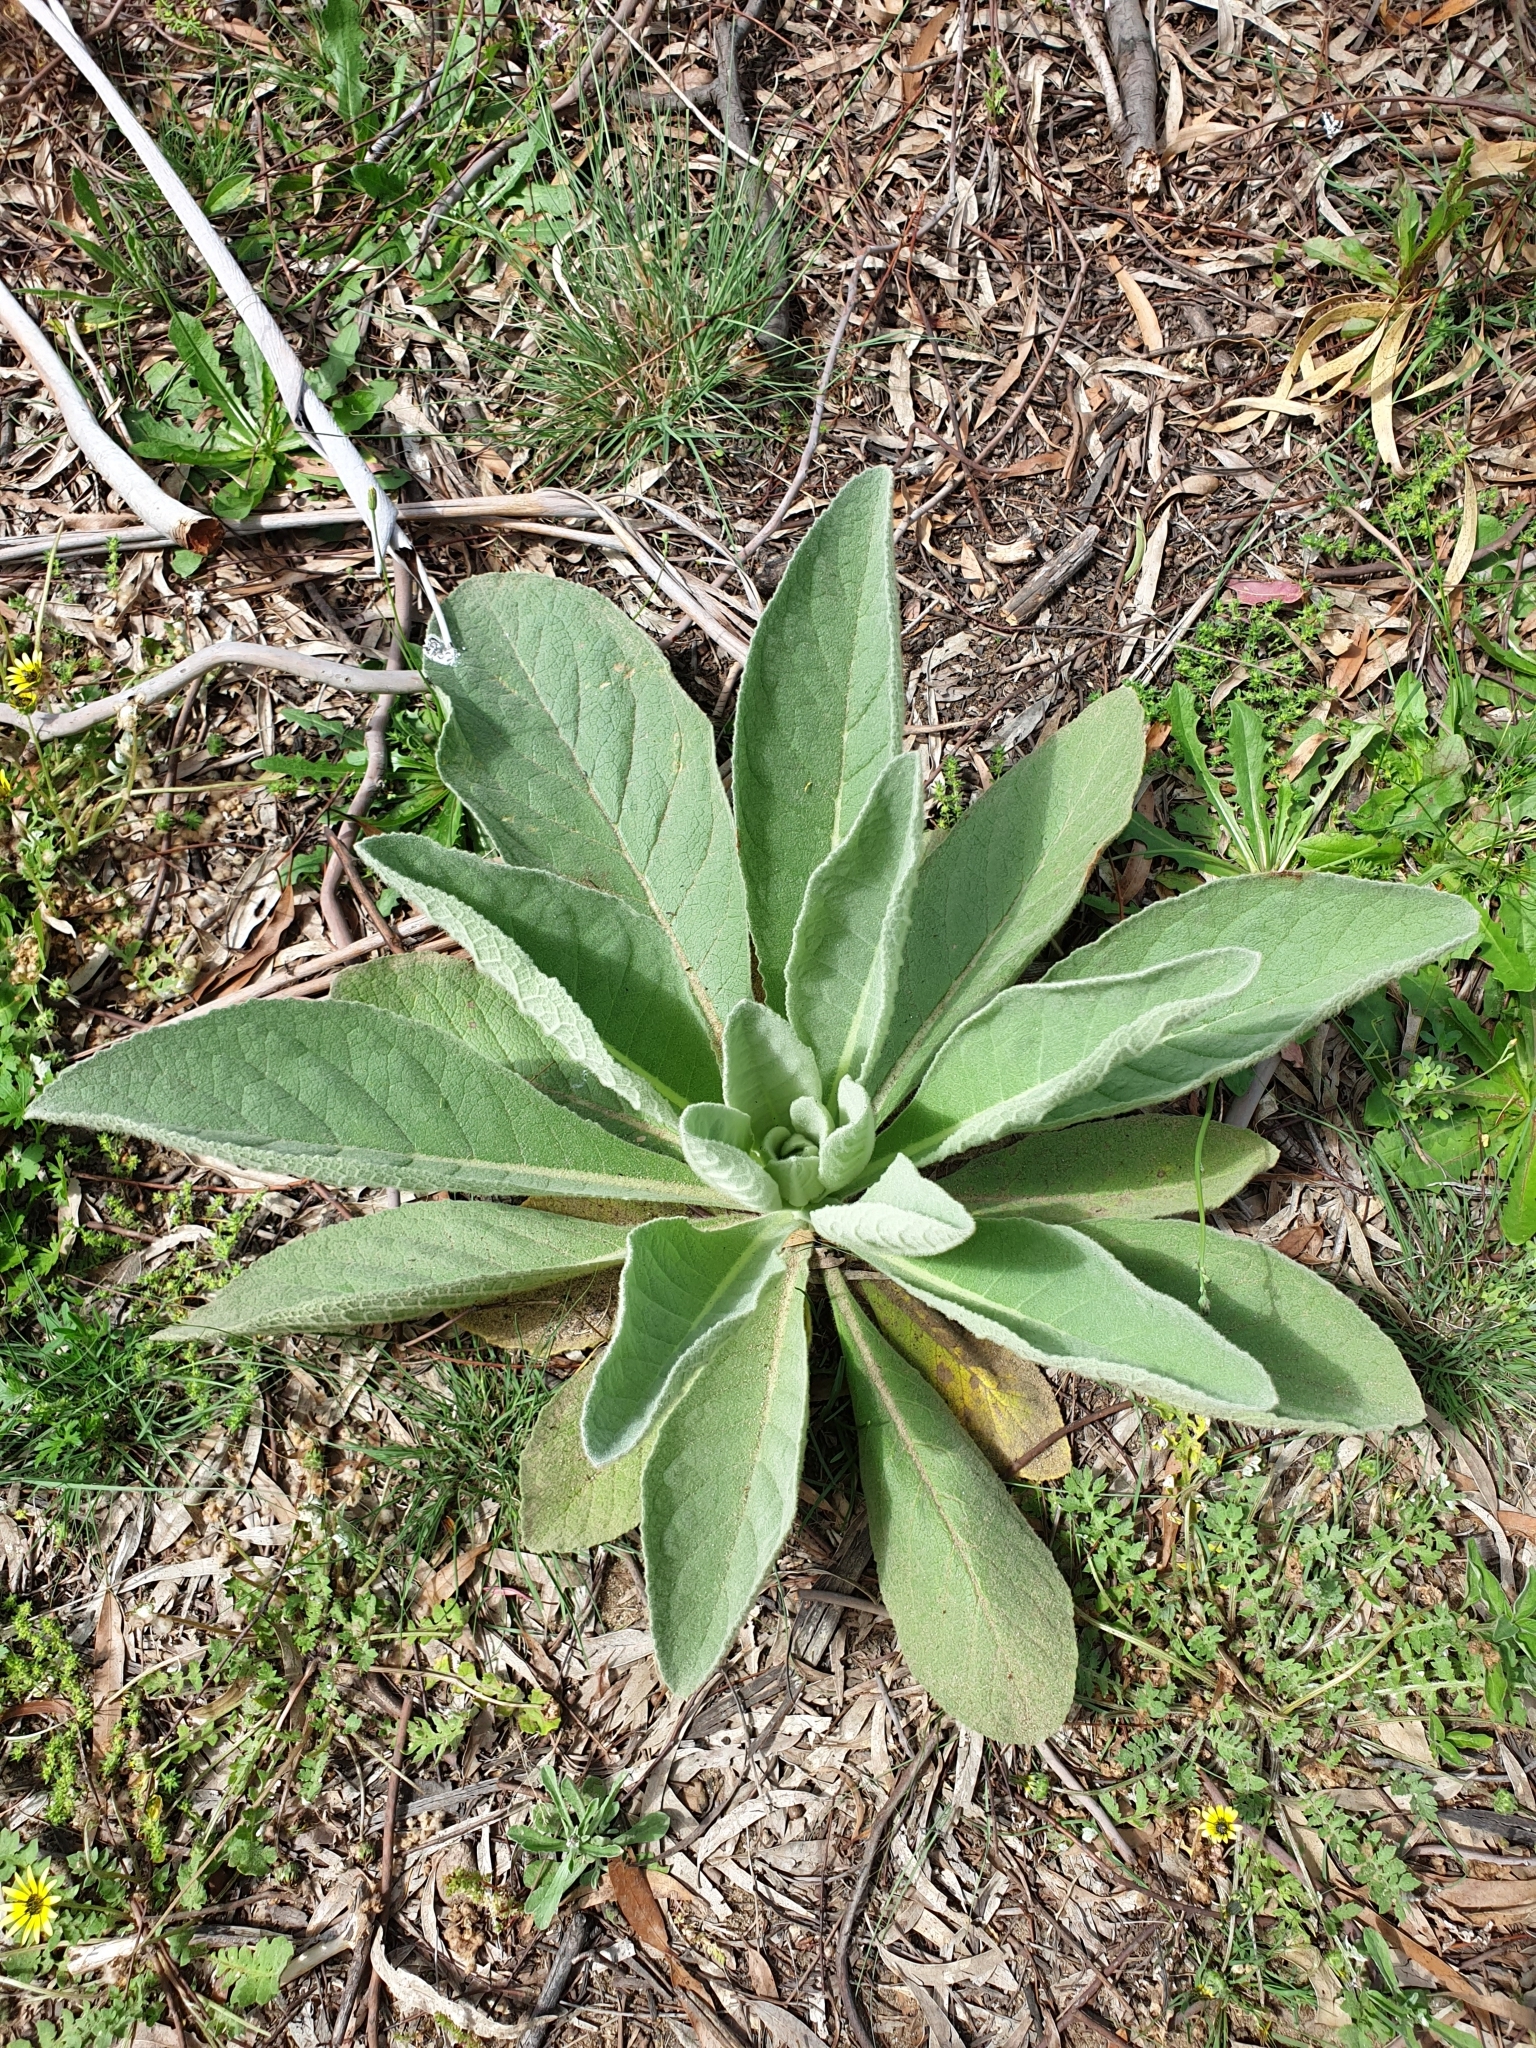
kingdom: Plantae
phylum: Tracheophyta
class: Magnoliopsida
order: Lamiales
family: Scrophulariaceae
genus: Verbascum
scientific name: Verbascum thapsus
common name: Common mullein
